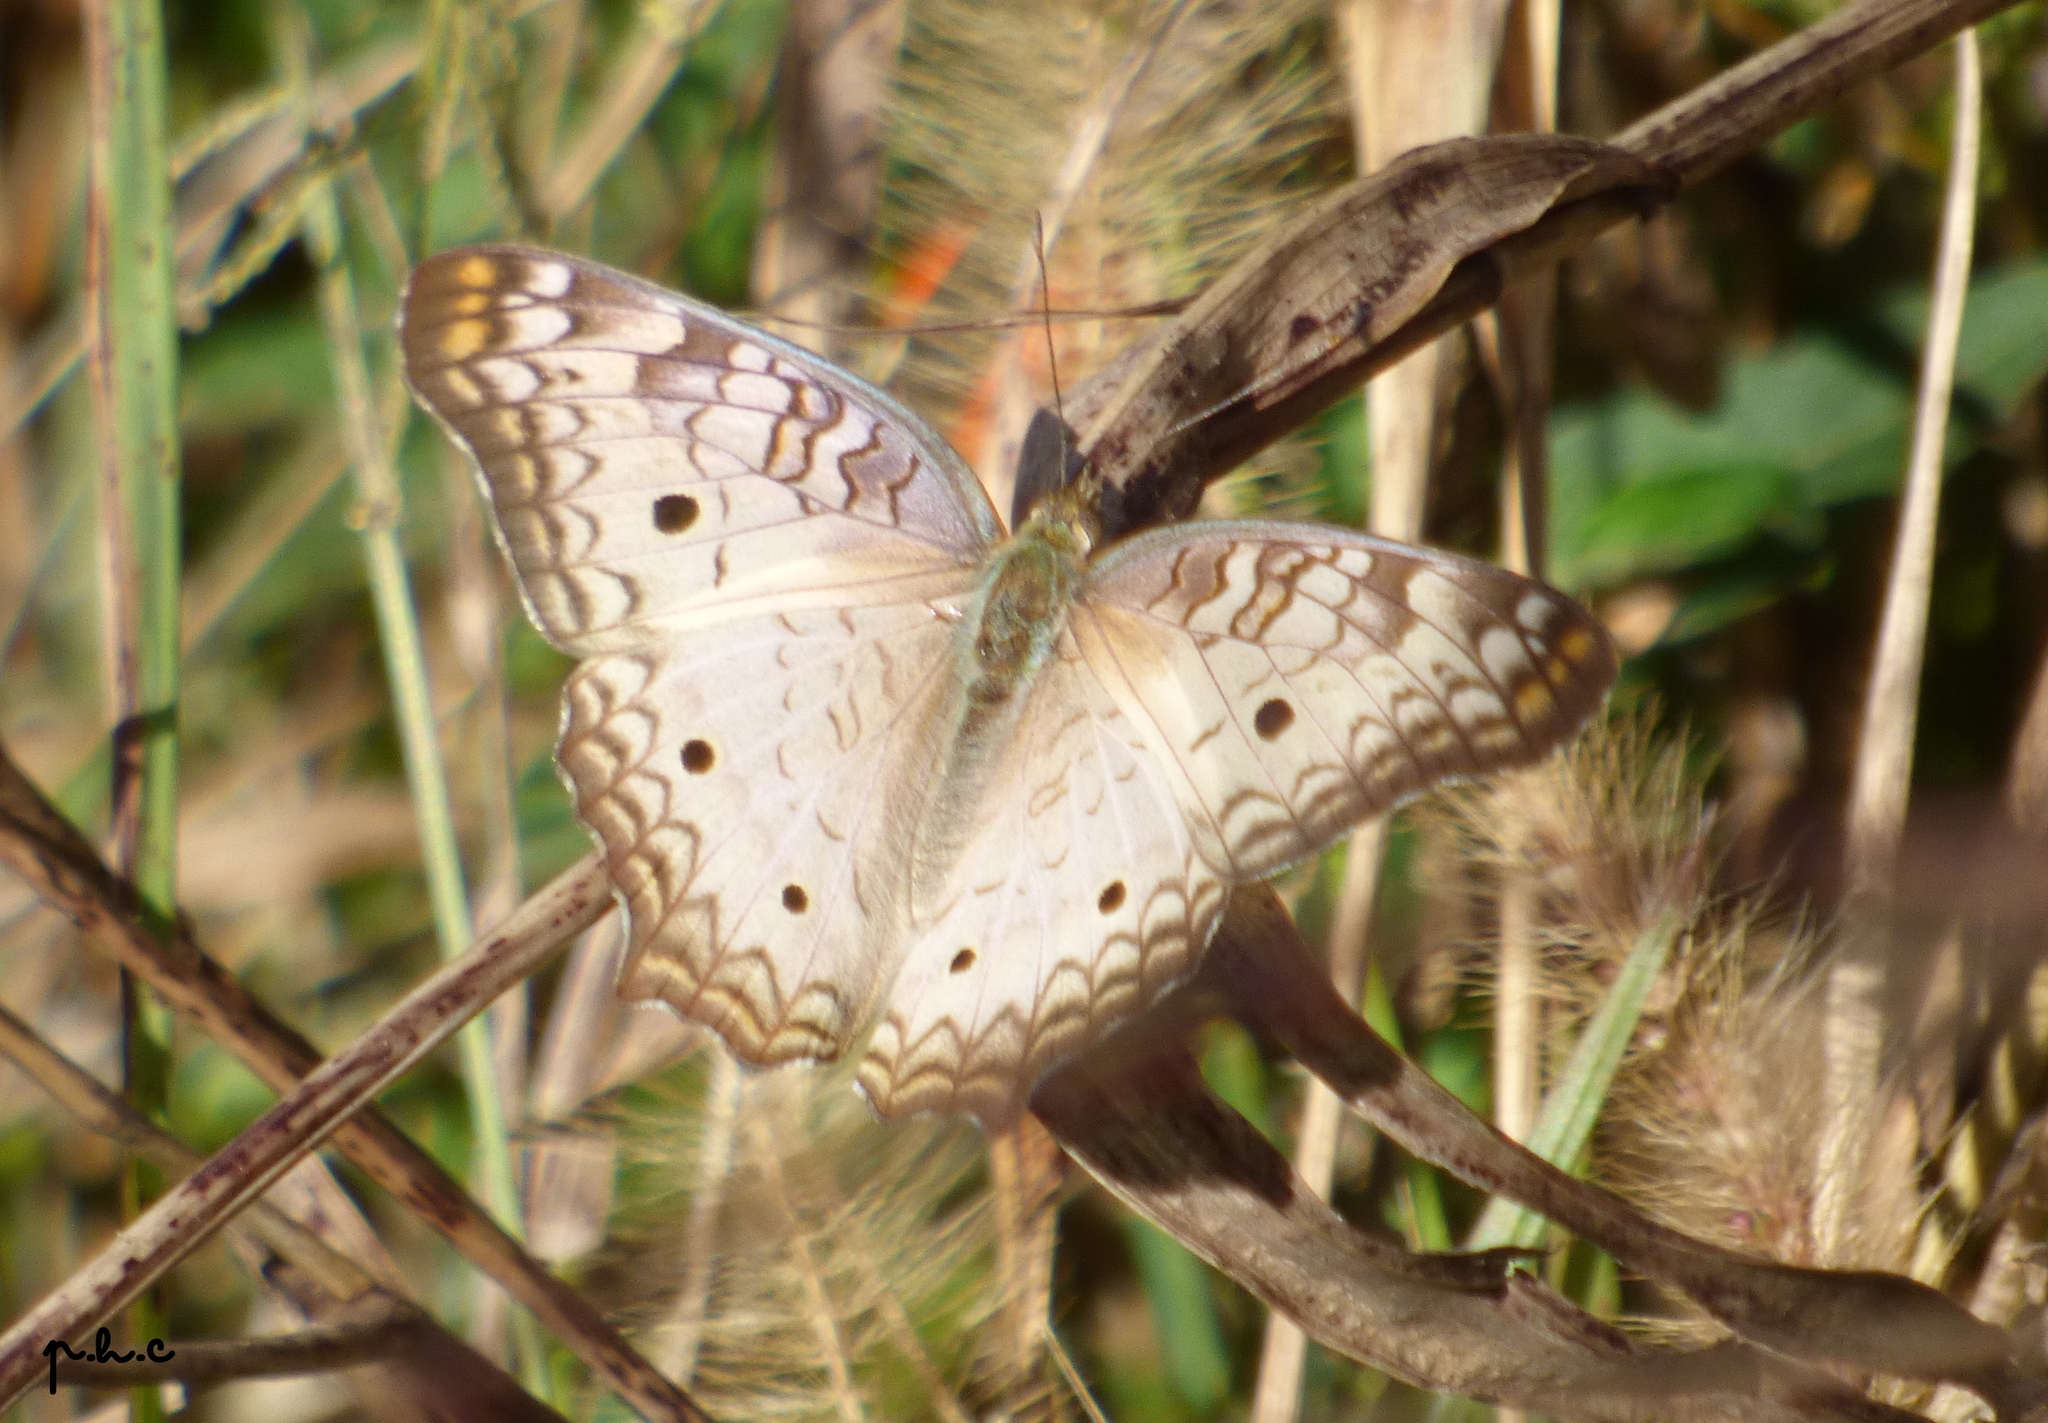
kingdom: Animalia
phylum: Arthropoda
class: Insecta
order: Lepidoptera
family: Nymphalidae
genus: Anartia
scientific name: Anartia jatrophae
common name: White peacock
